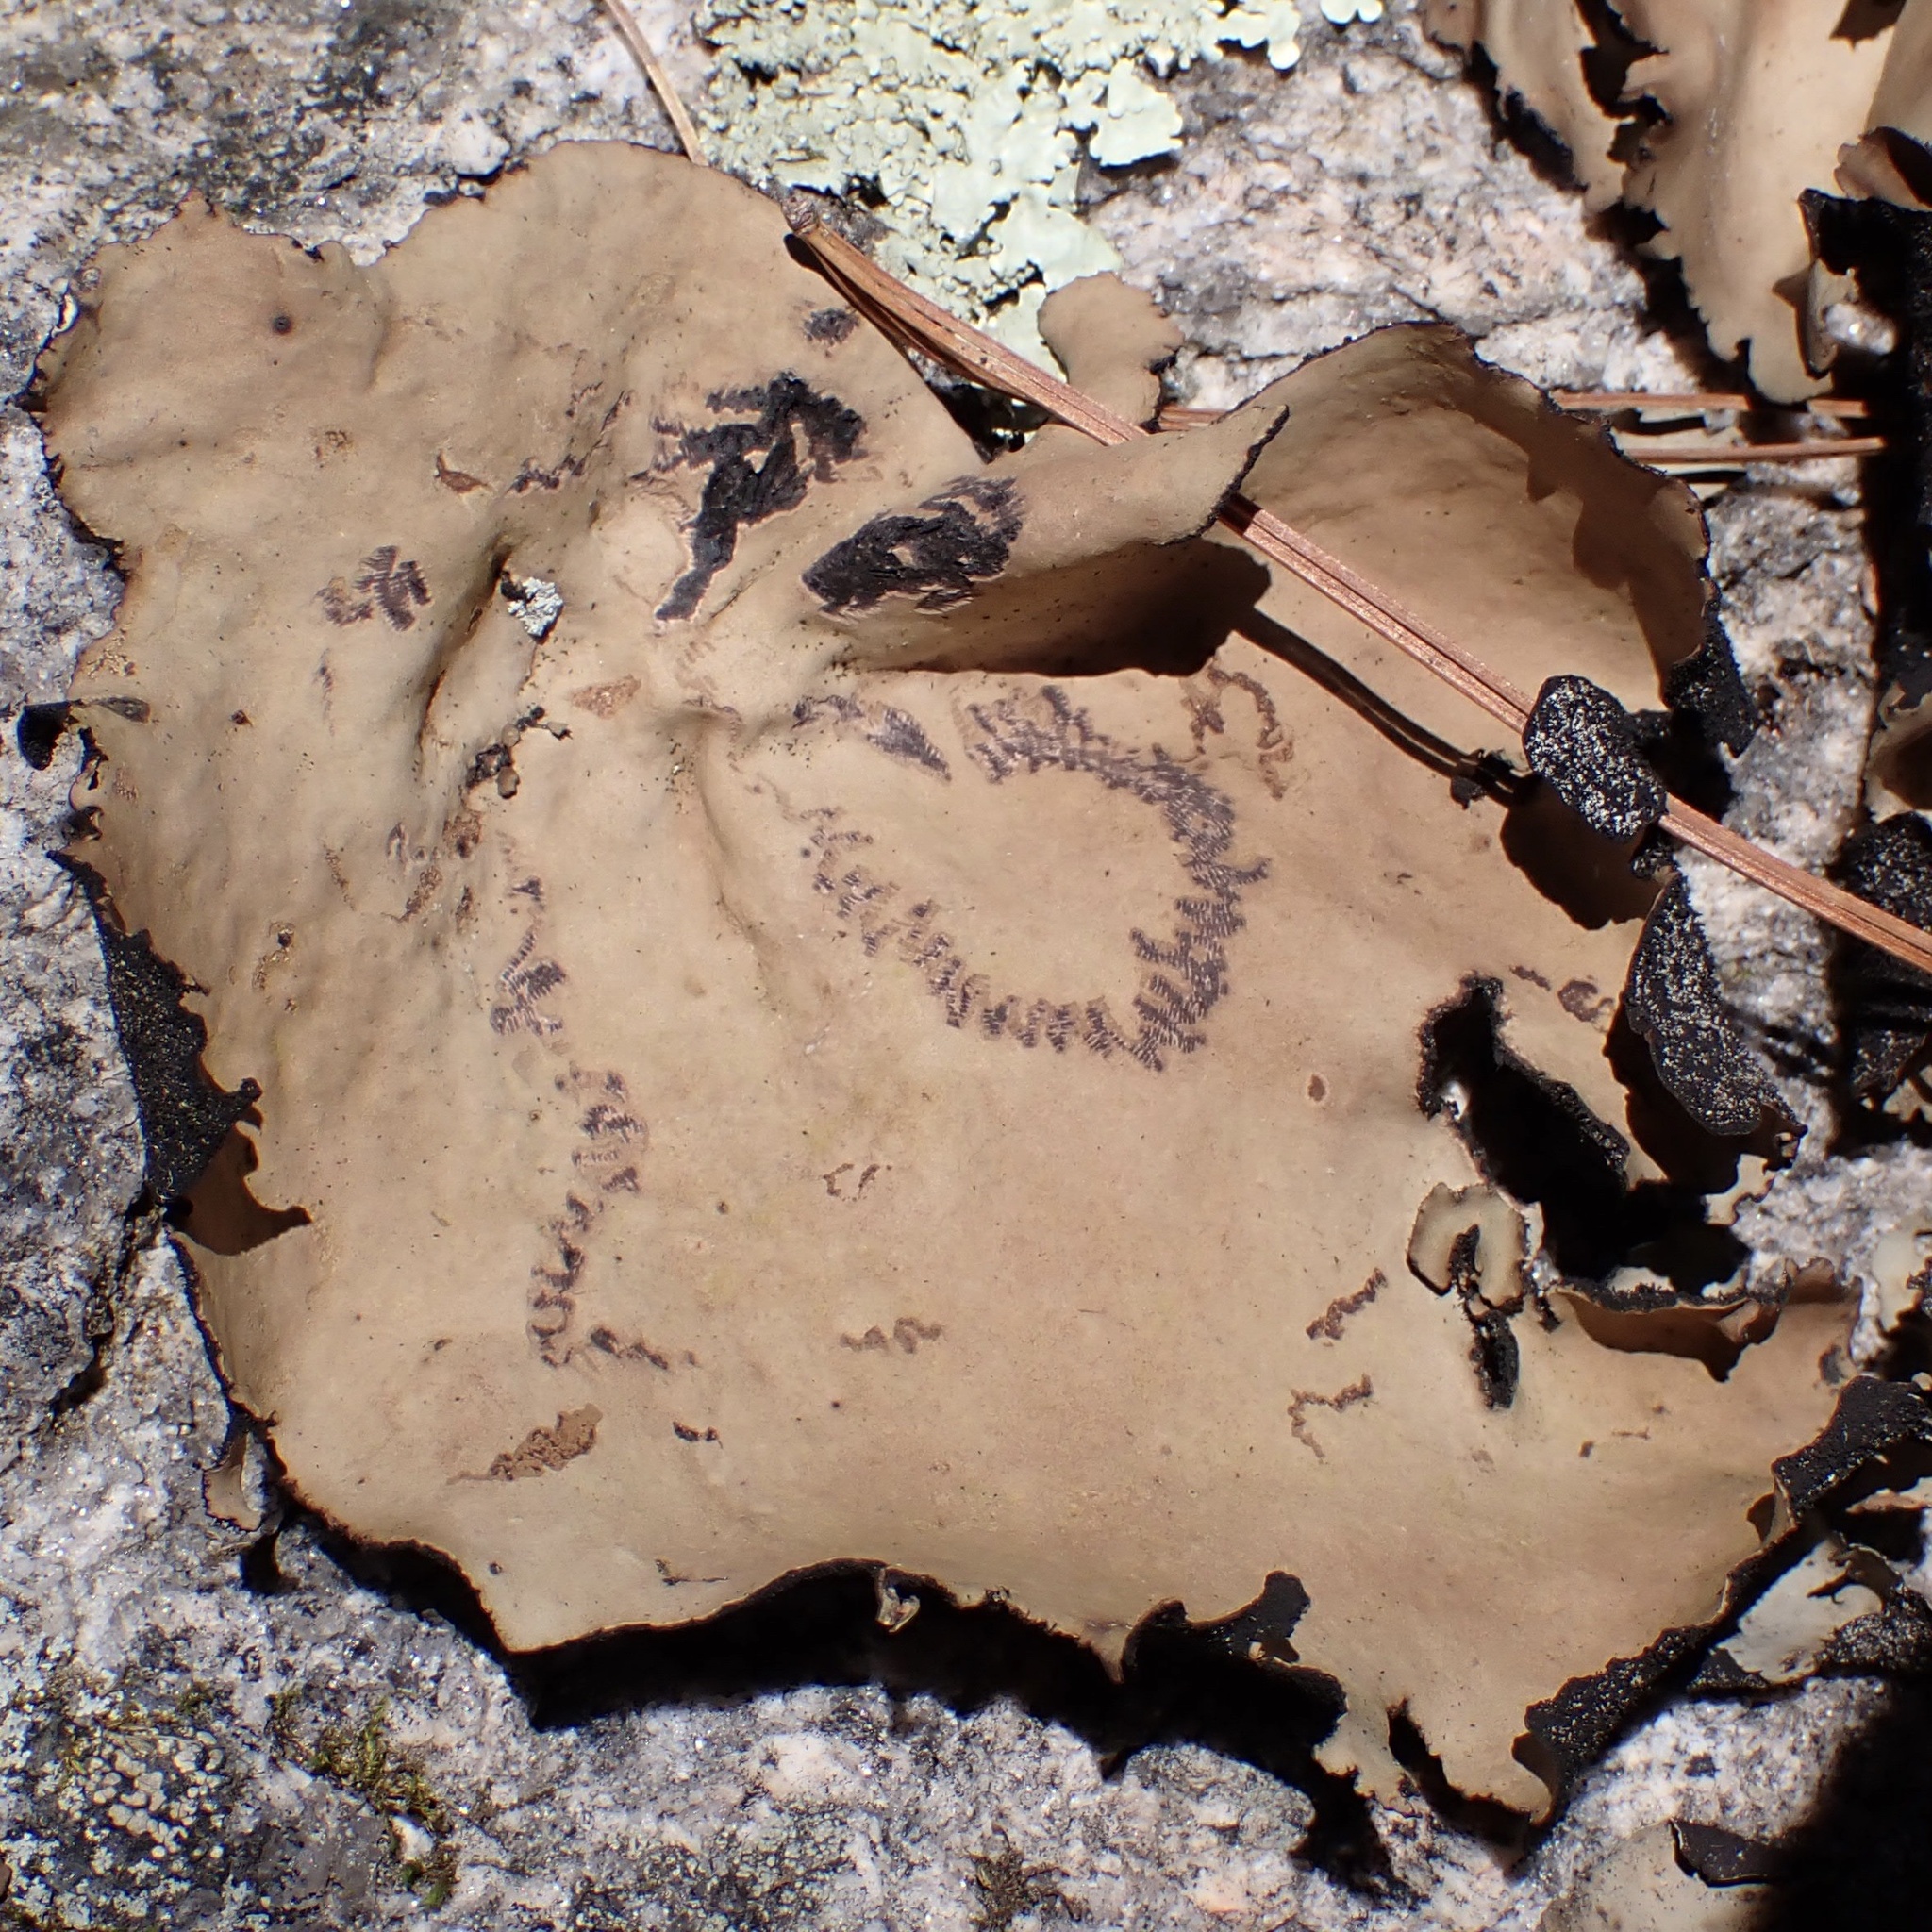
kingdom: Fungi
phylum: Ascomycota
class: Lecanoromycetes
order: Umbilicariales
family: Umbilicariaceae
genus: Umbilicaria
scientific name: Umbilicaria mammulata
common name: Smooth rock tripe
